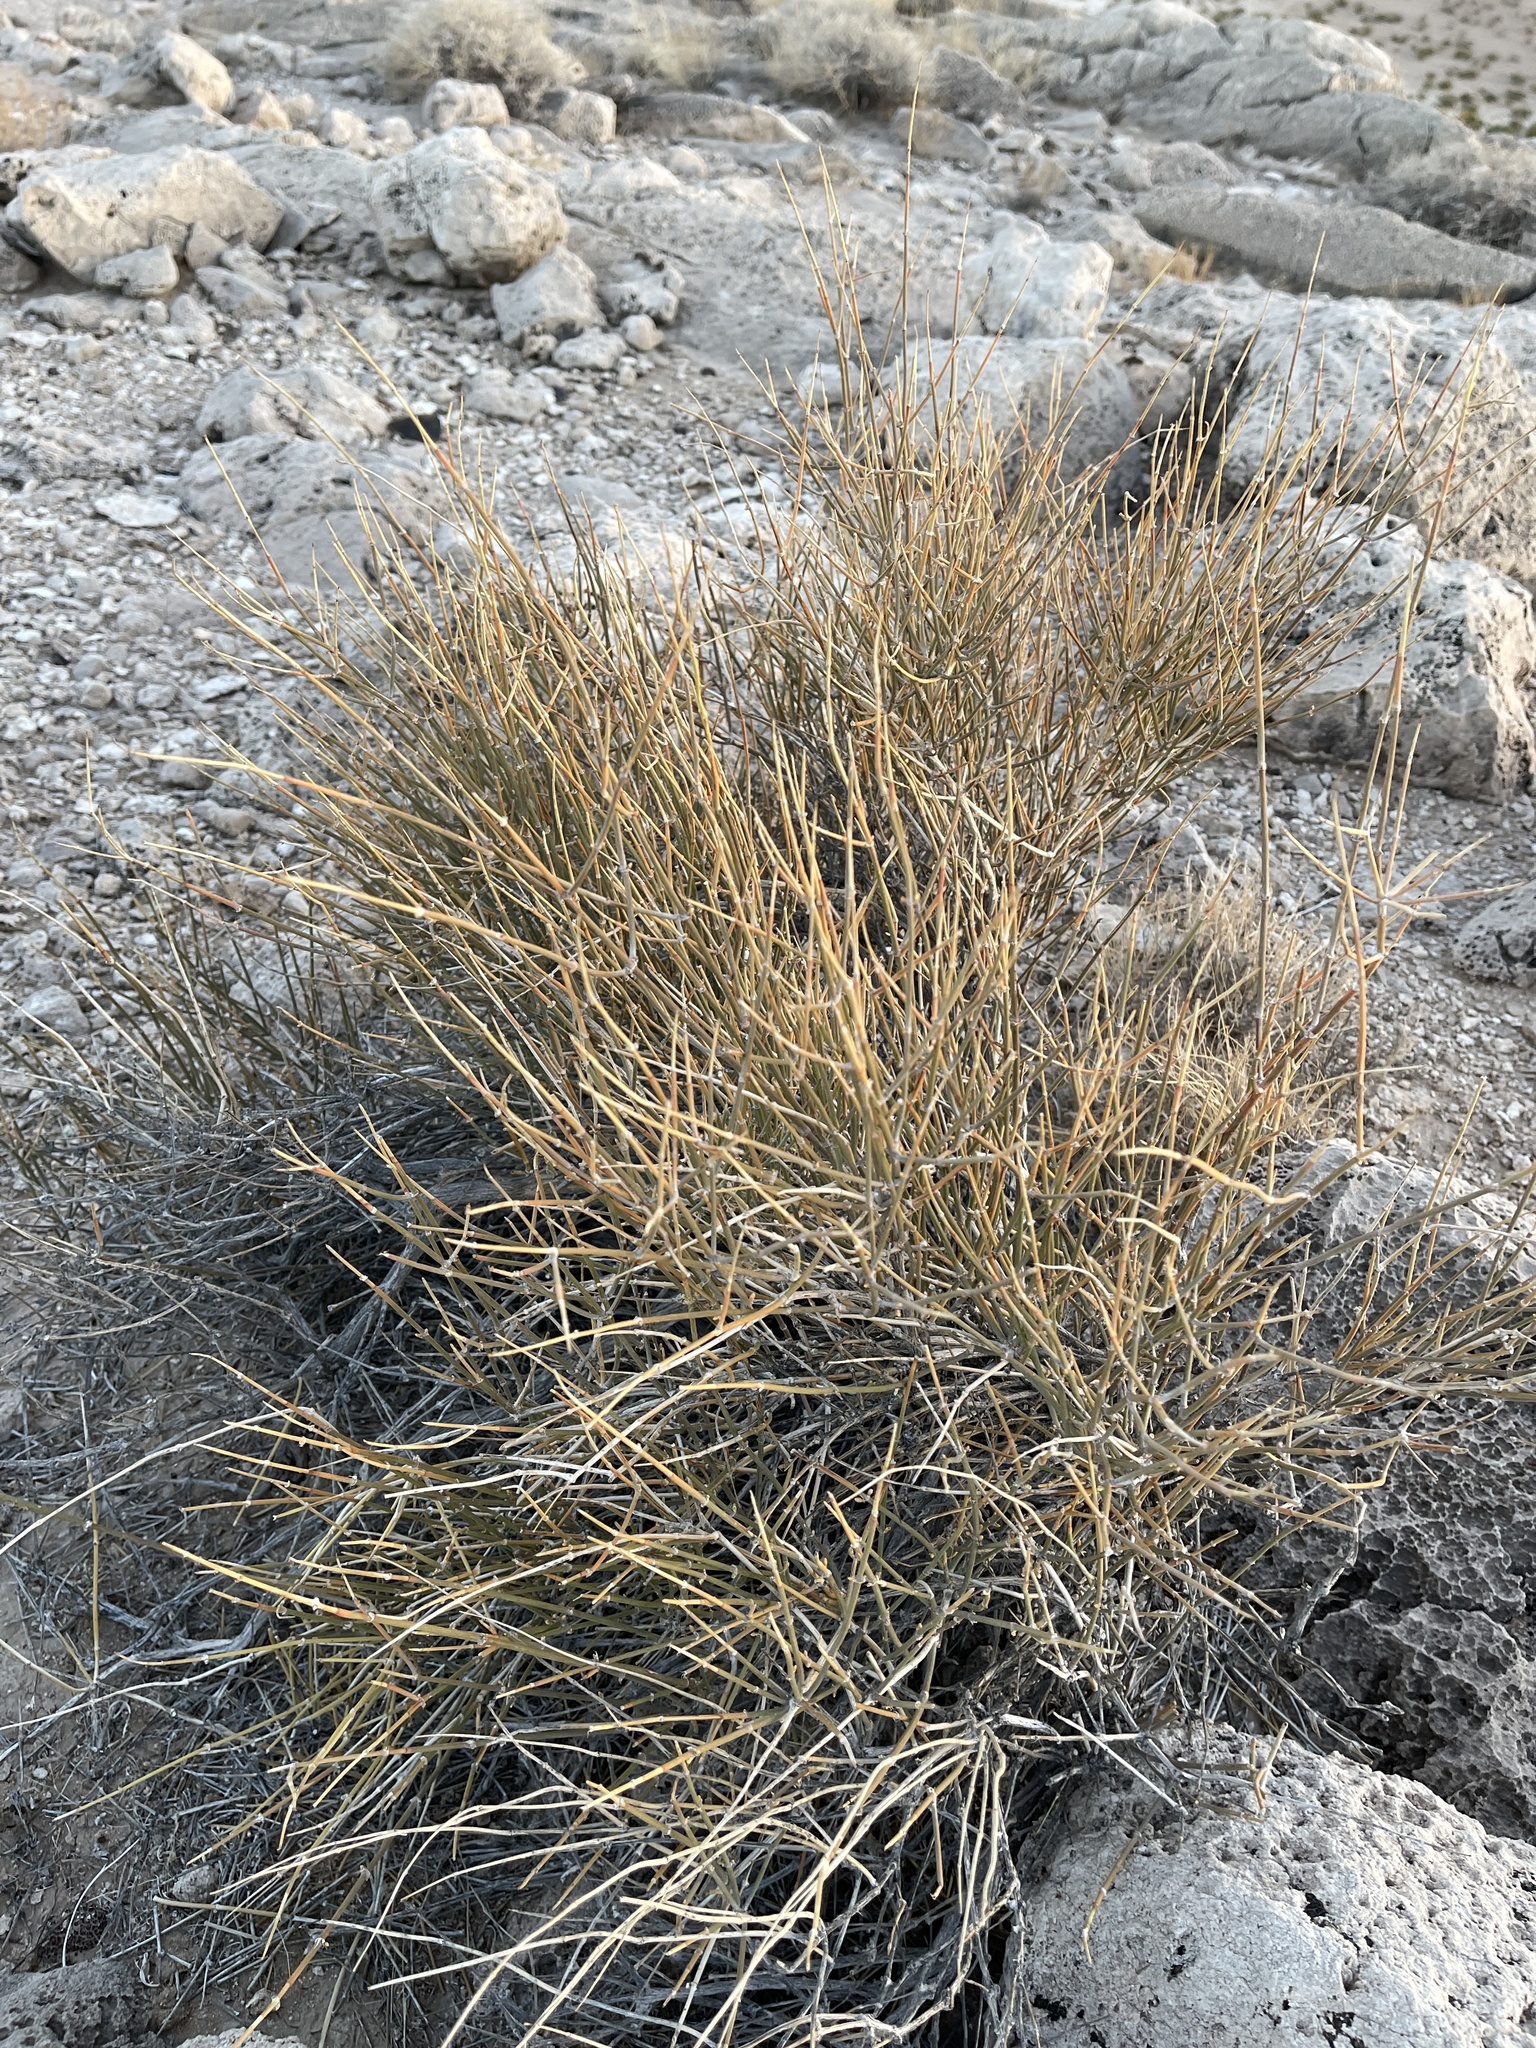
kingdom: Plantae
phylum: Tracheophyta
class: Gnetopsida
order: Ephedrales
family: Ephedraceae
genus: Ephedra
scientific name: Ephedra nevadensis
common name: Gray ephedra
